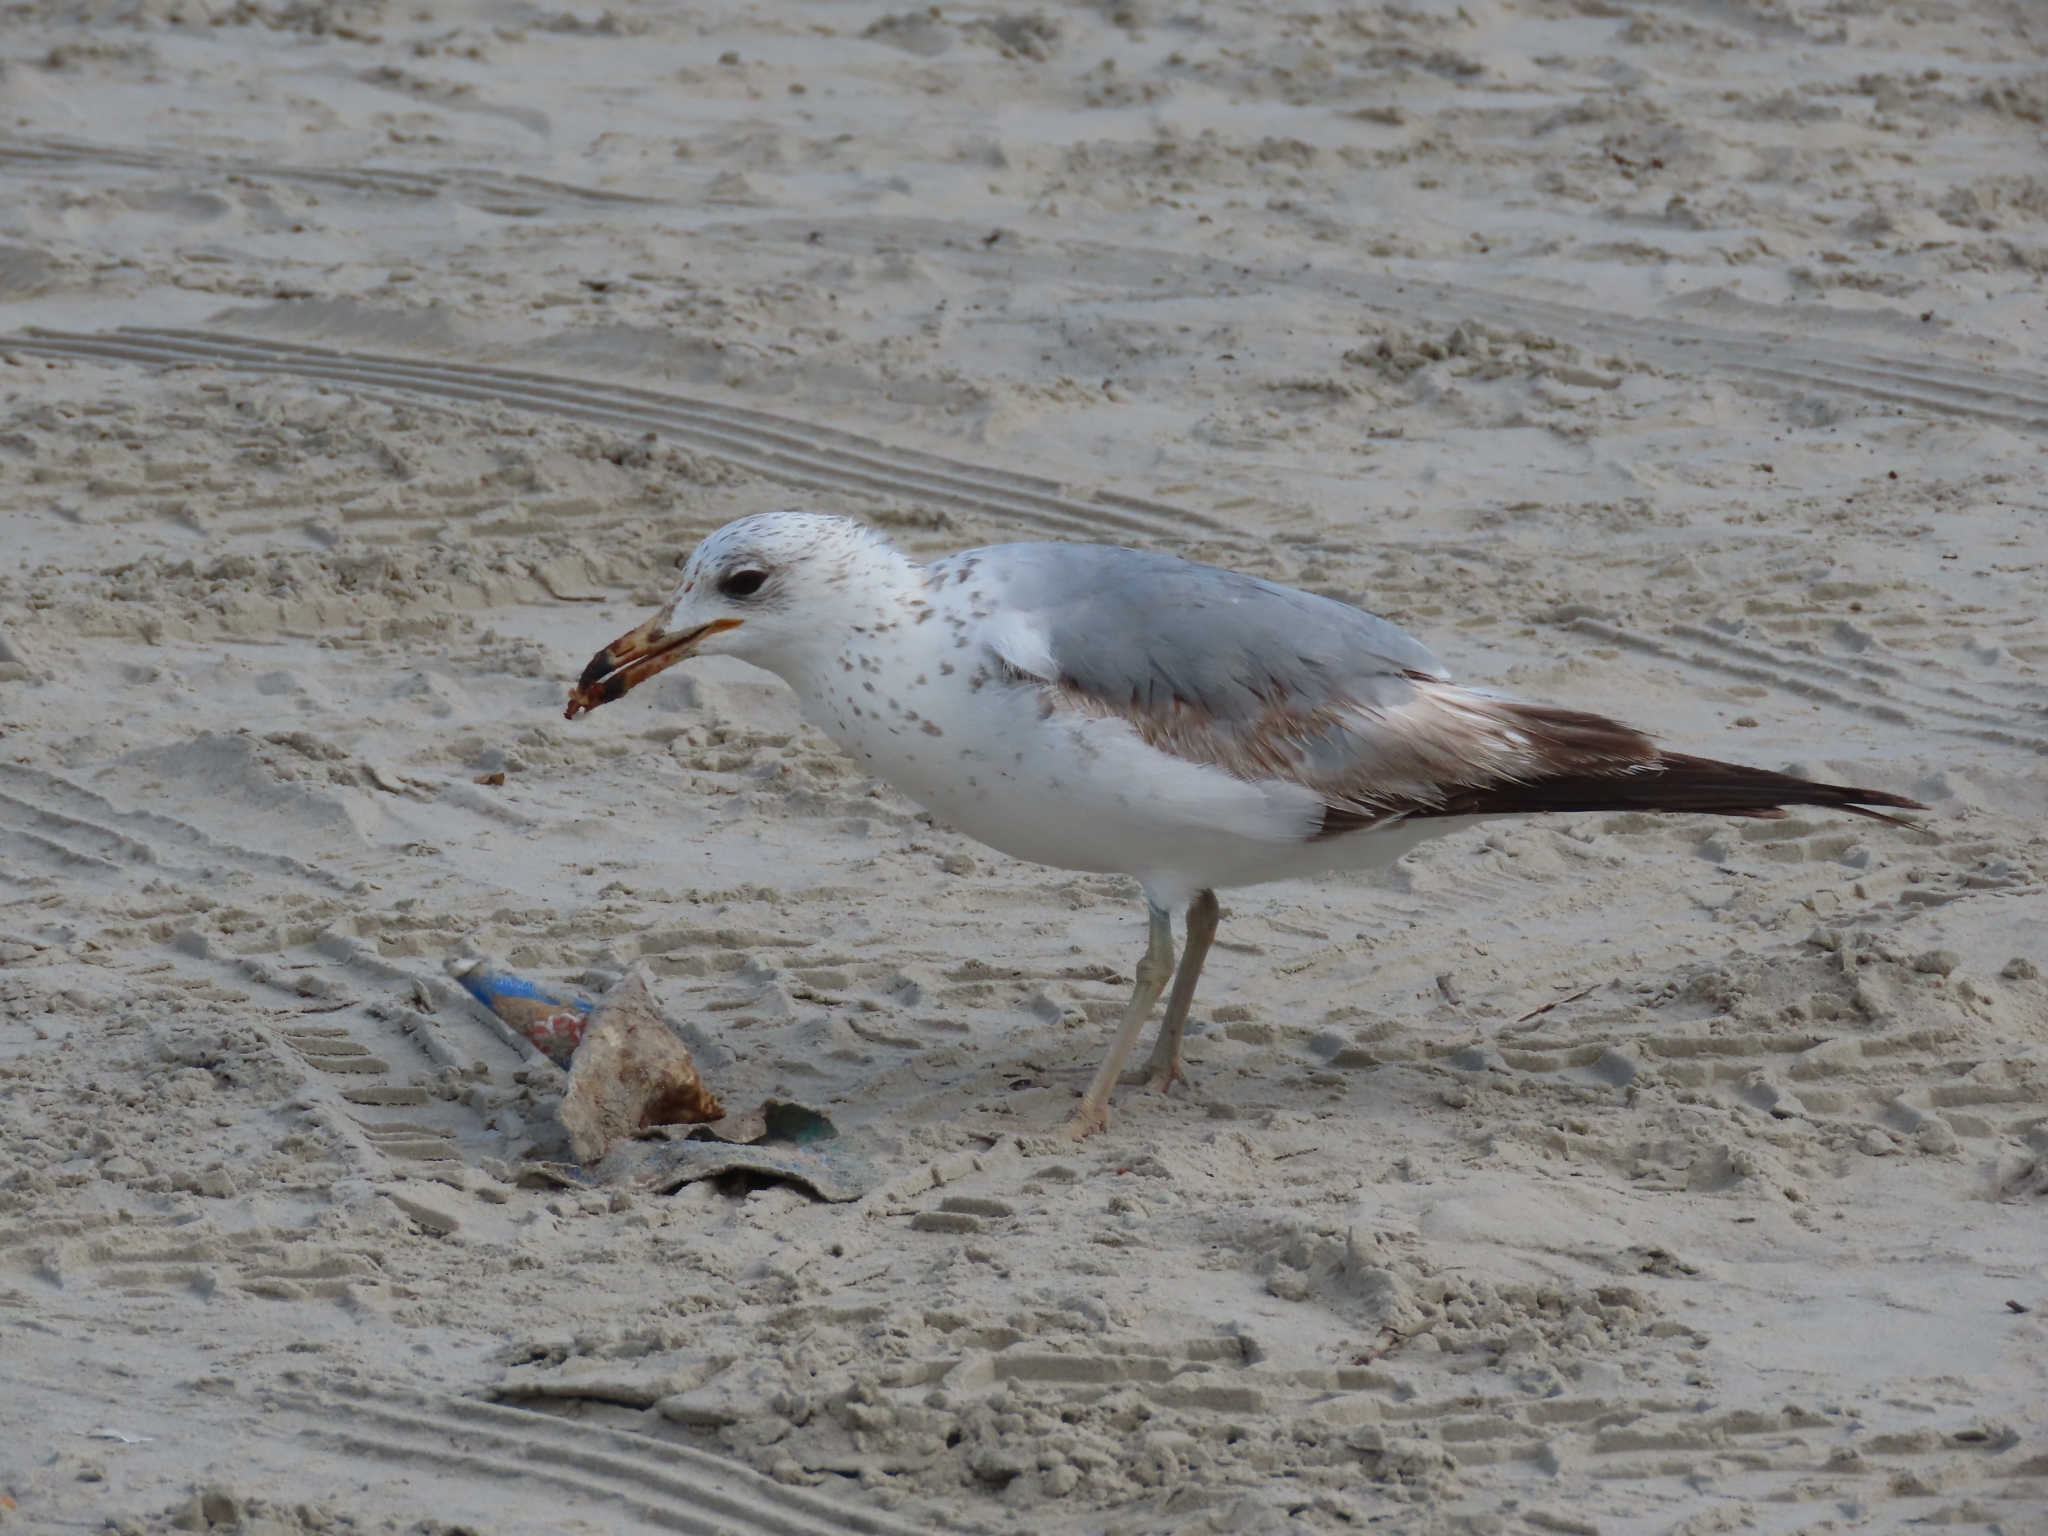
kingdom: Animalia
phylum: Chordata
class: Aves
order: Charadriiformes
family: Laridae
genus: Larus
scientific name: Larus delawarensis
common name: Ring-billed gull
